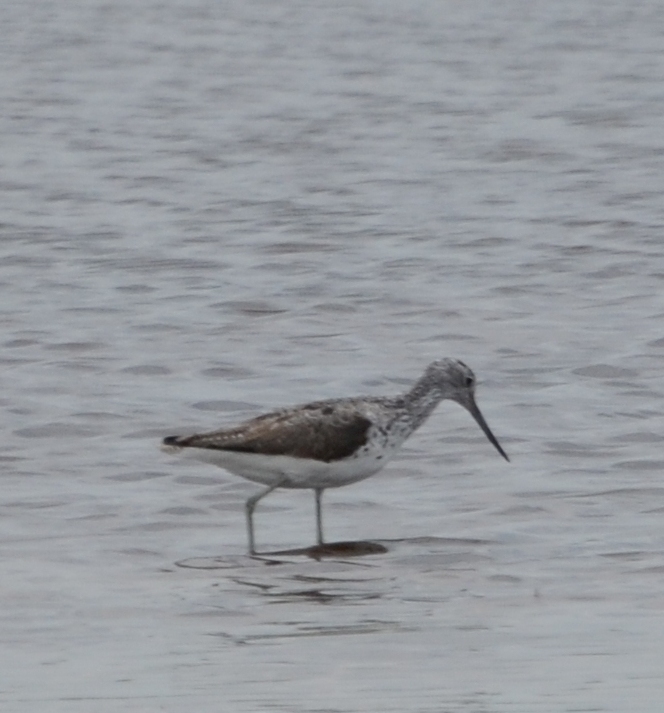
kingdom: Animalia
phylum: Chordata
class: Aves
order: Charadriiformes
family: Scolopacidae
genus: Tringa
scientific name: Tringa nebularia
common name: Common greenshank
